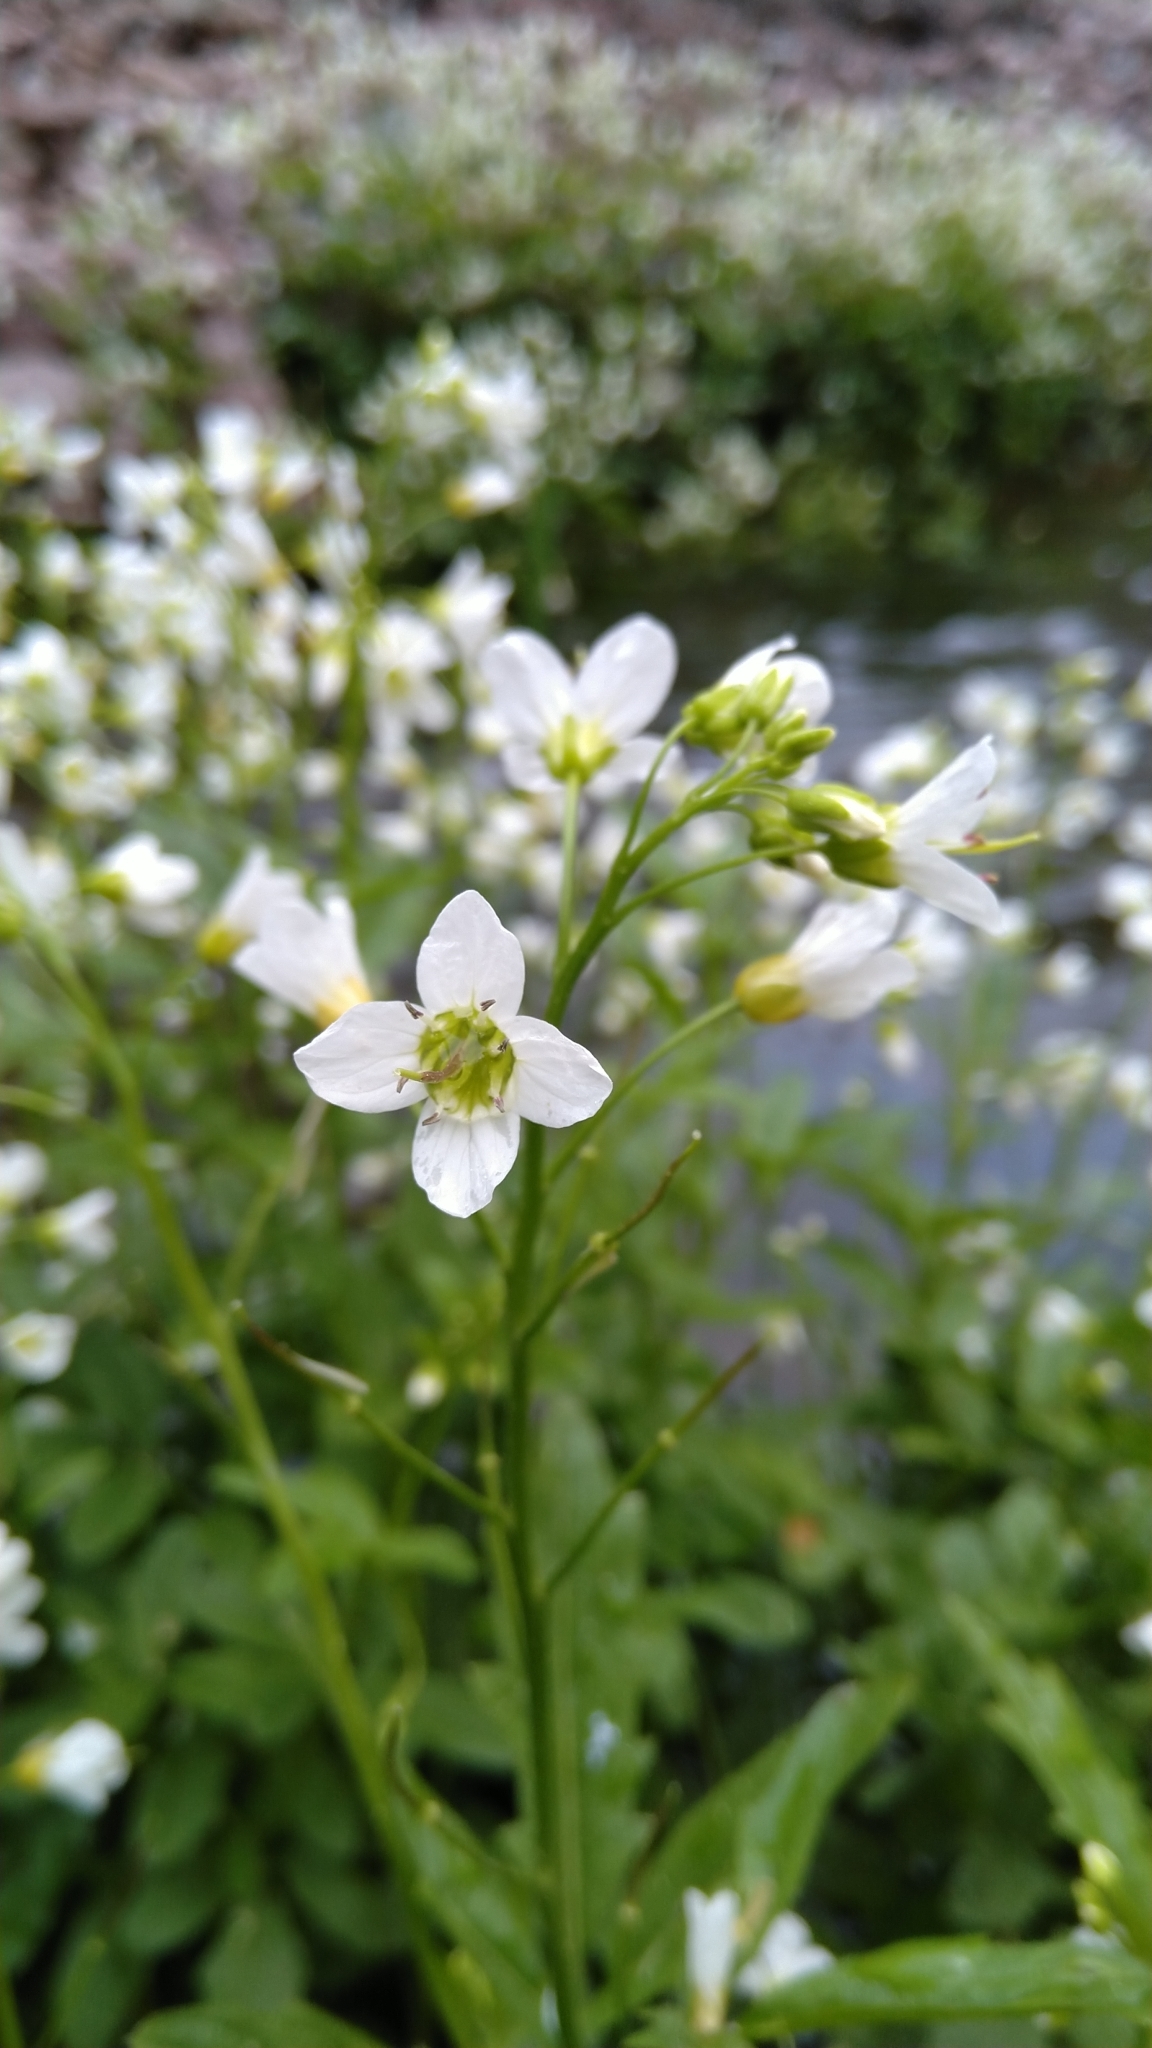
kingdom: Plantae
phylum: Tracheophyta
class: Magnoliopsida
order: Brassicales
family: Brassicaceae
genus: Cardamine
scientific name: Cardamine amara
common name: Large bitter-cress
